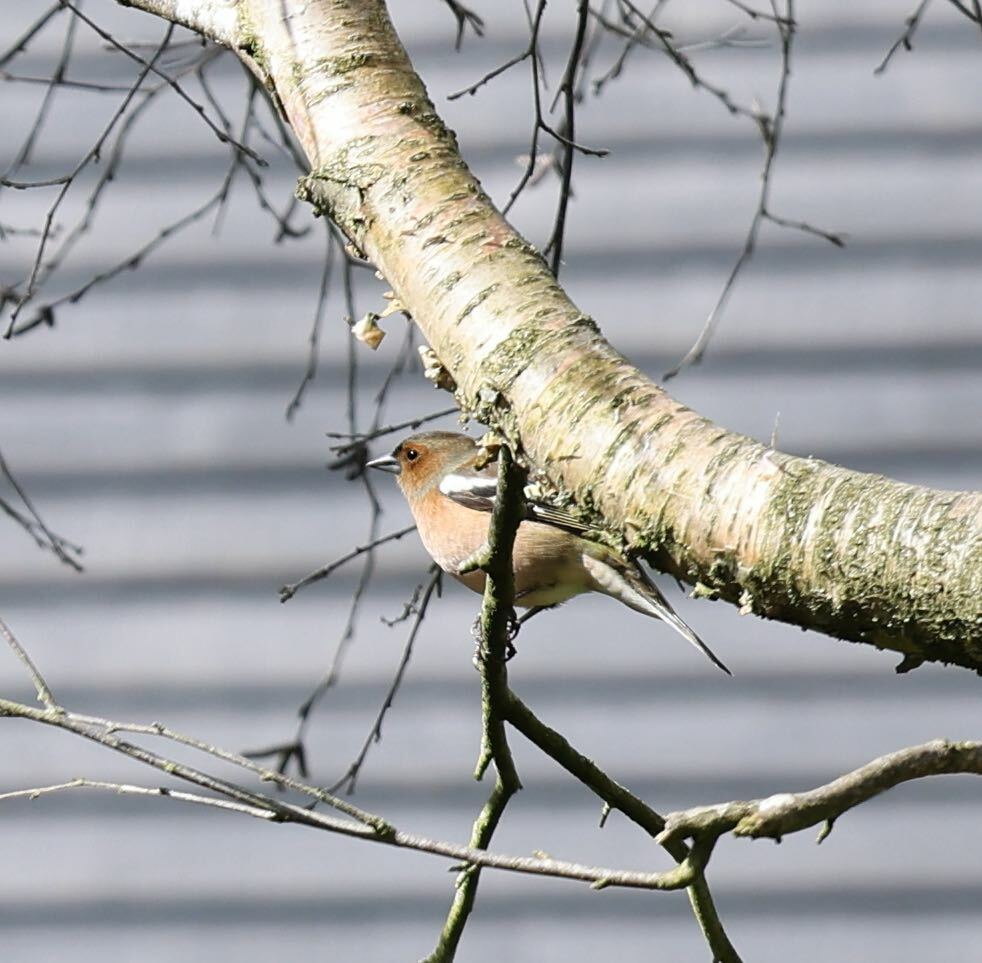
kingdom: Animalia
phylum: Chordata
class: Aves
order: Passeriformes
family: Fringillidae
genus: Fringilla
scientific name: Fringilla coelebs
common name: Common chaffinch
